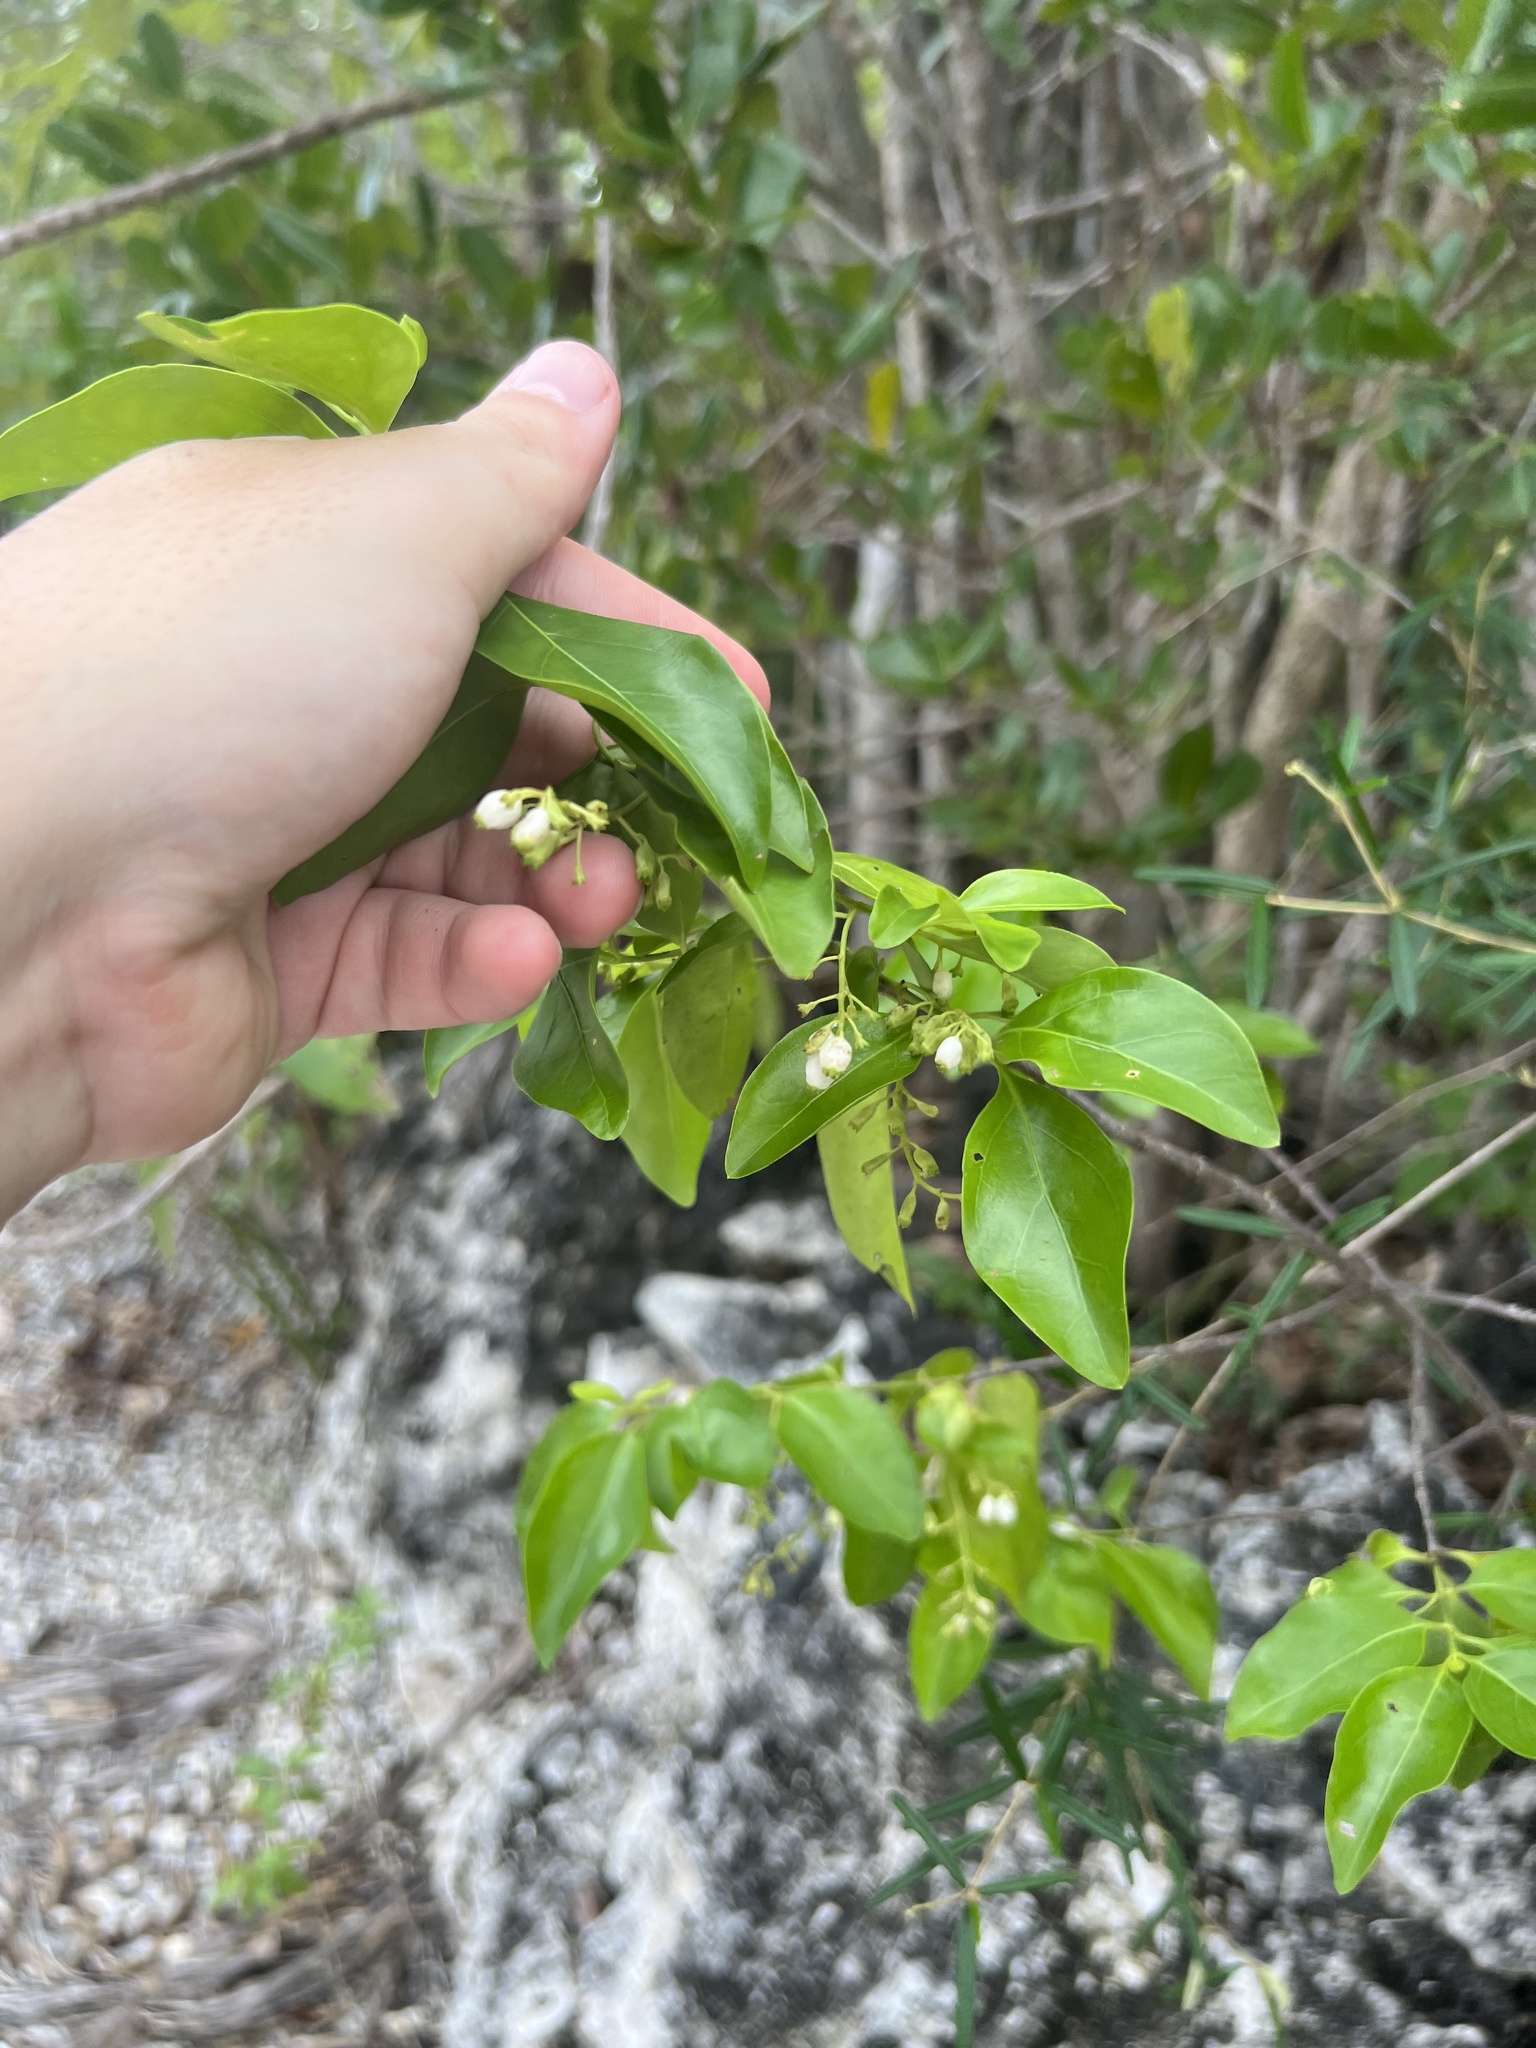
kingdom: Plantae
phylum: Tracheophyta
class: Magnoliopsida
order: Gentianales
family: Rubiaceae
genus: Chiococca
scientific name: Chiococca alba
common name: Snowberry
